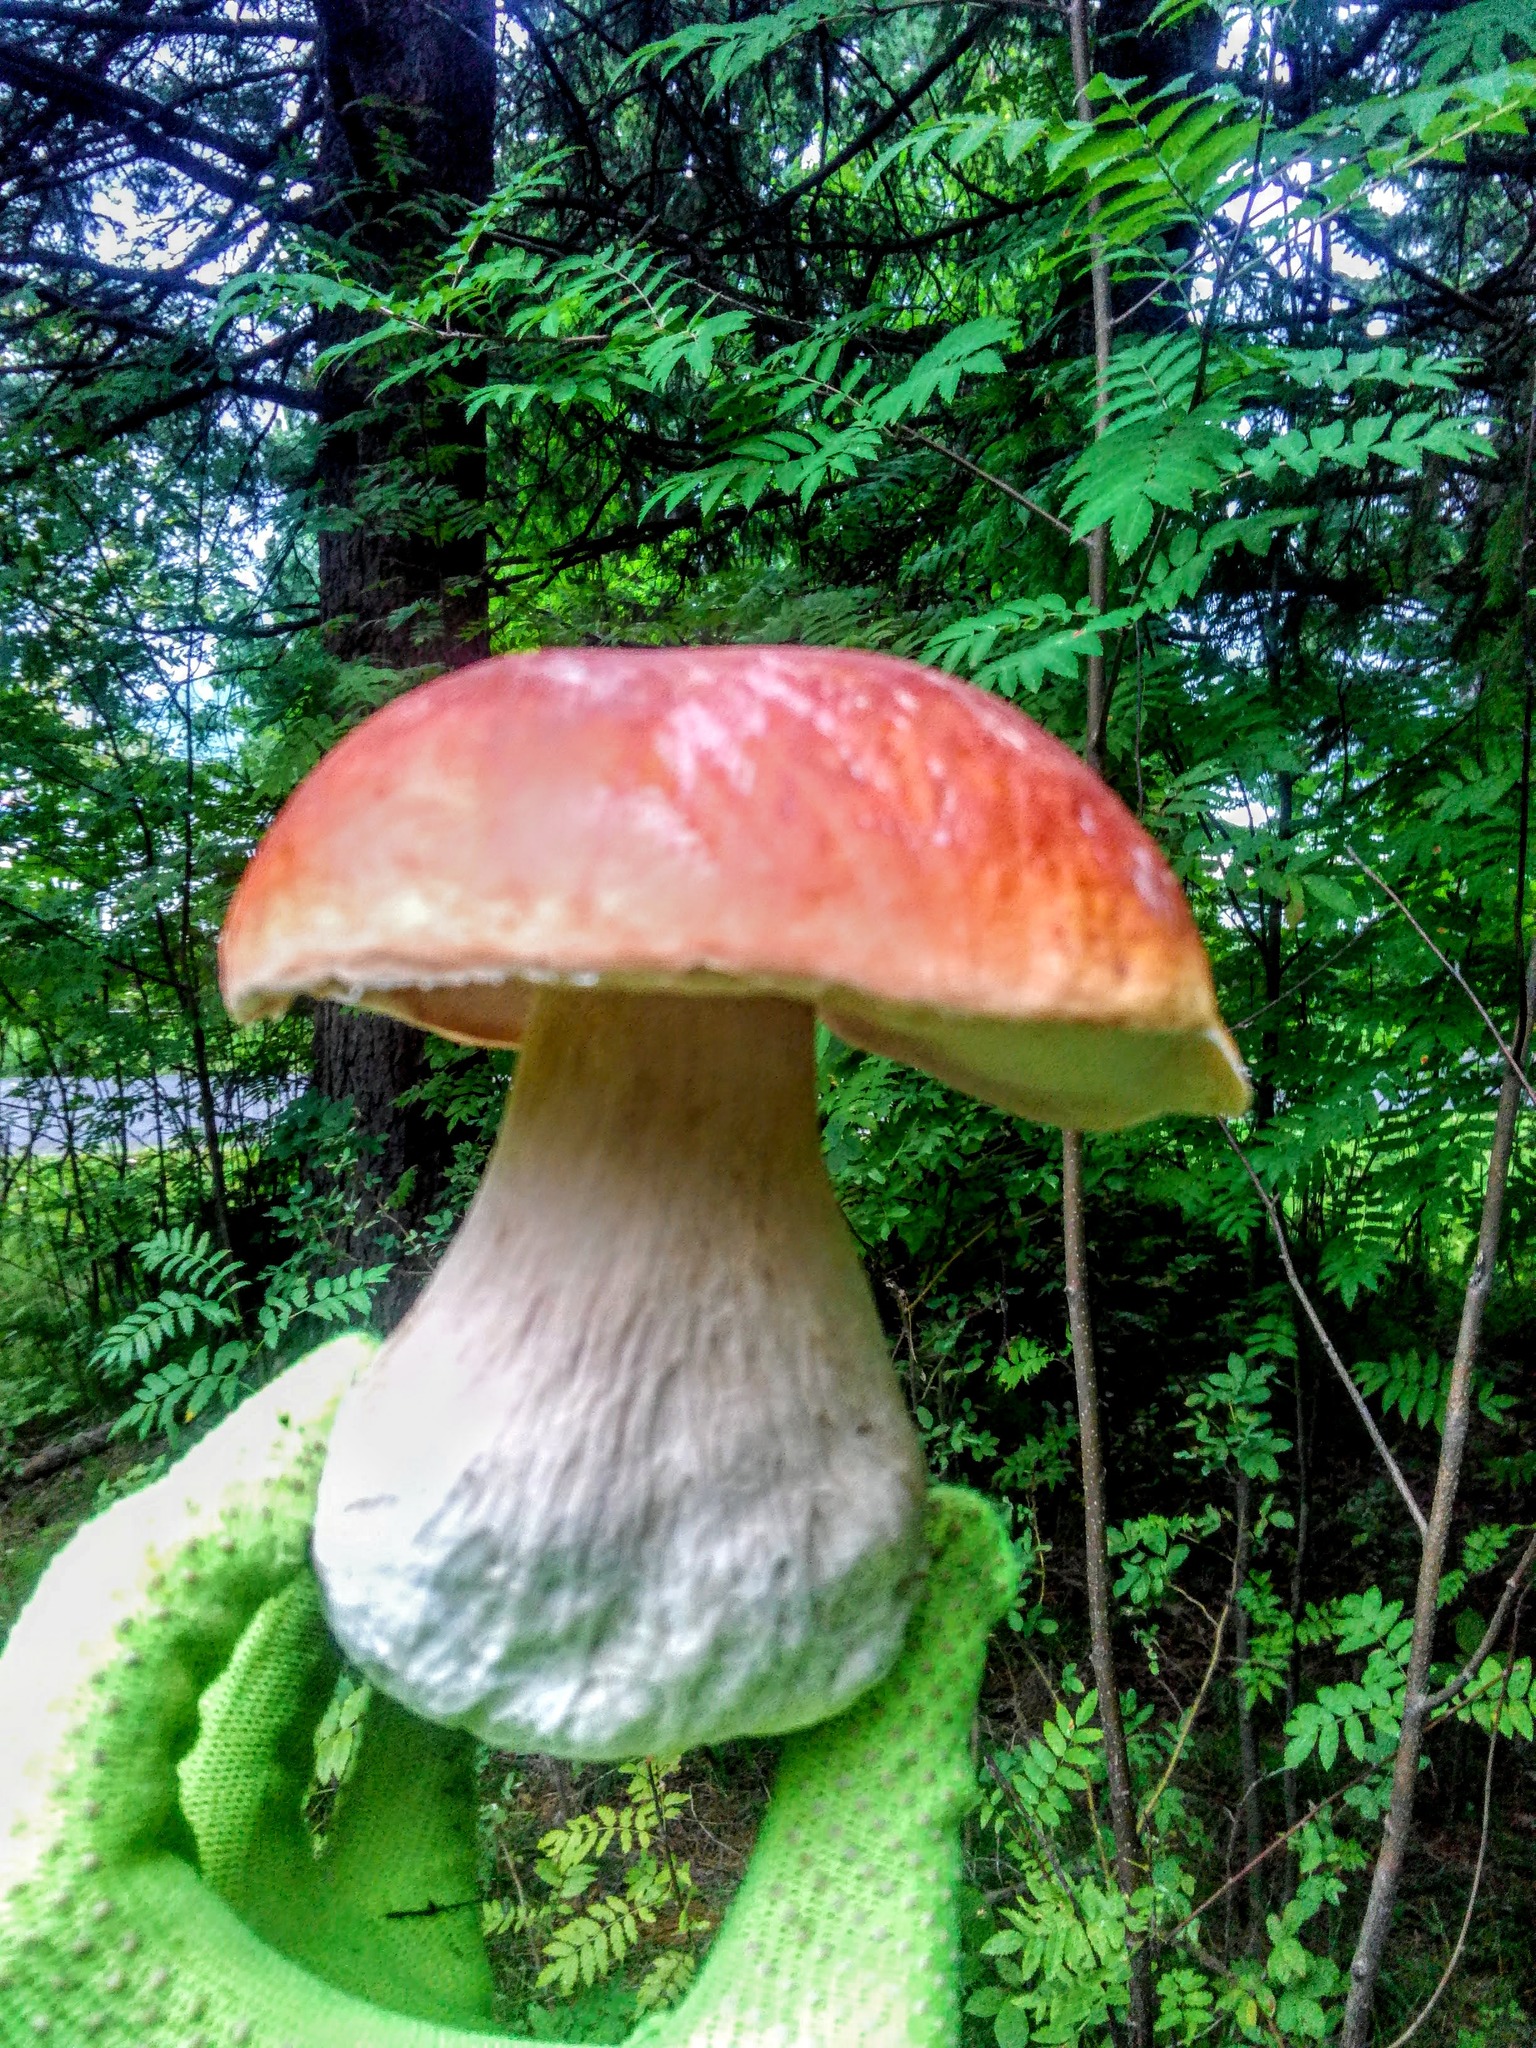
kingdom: Fungi
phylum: Basidiomycota
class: Agaricomycetes
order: Boletales
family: Boletaceae
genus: Boletus
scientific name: Boletus pinophilus
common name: Pine bolete
